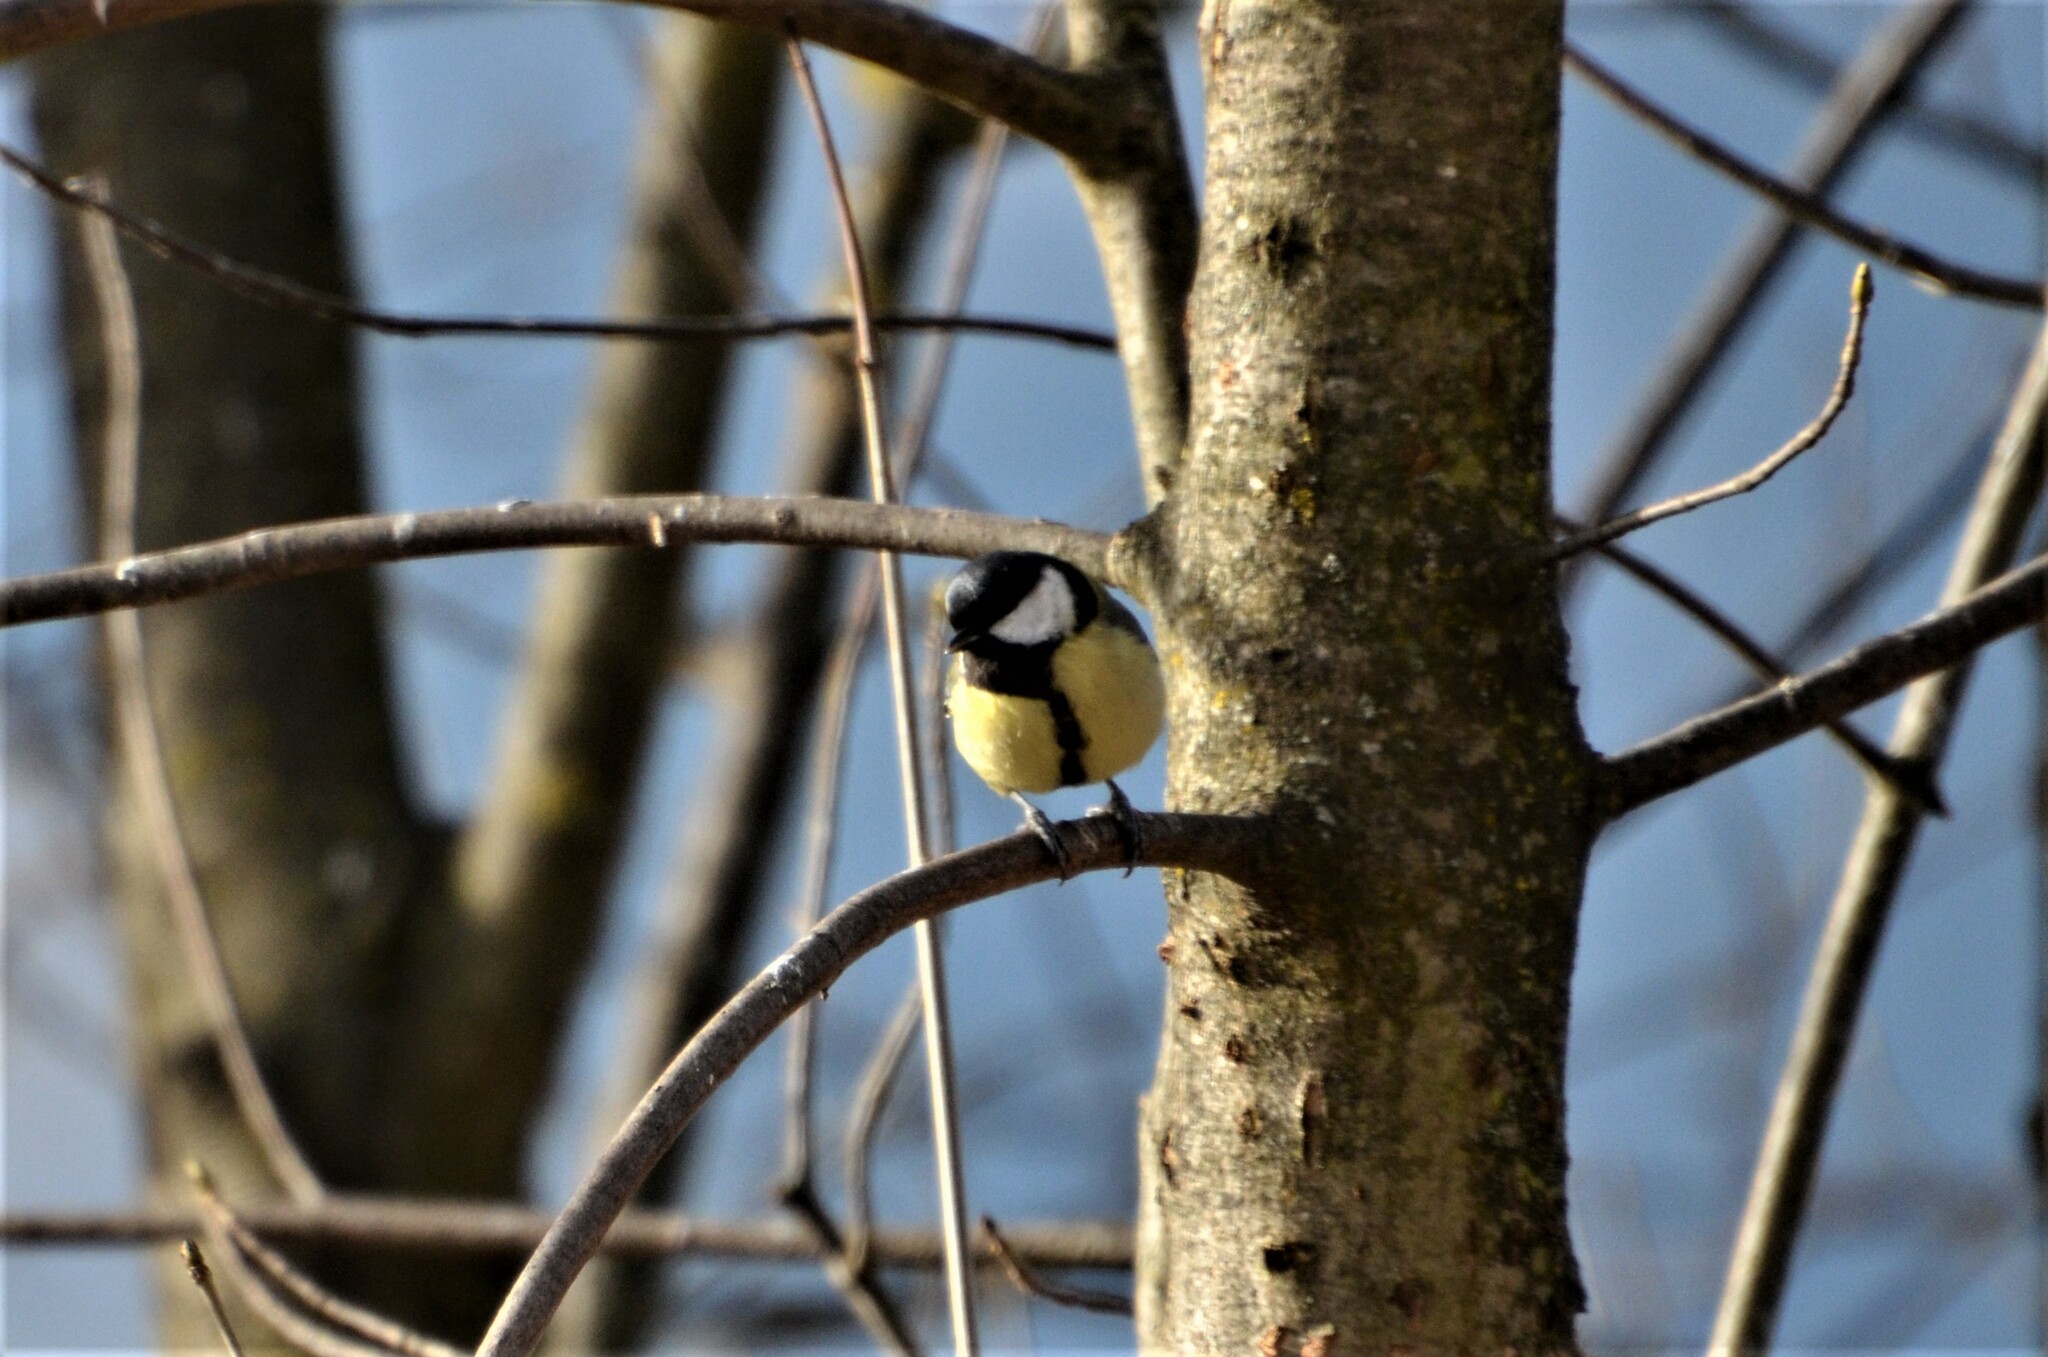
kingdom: Animalia
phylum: Chordata
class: Aves
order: Passeriformes
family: Paridae
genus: Parus
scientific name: Parus major
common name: Great tit
